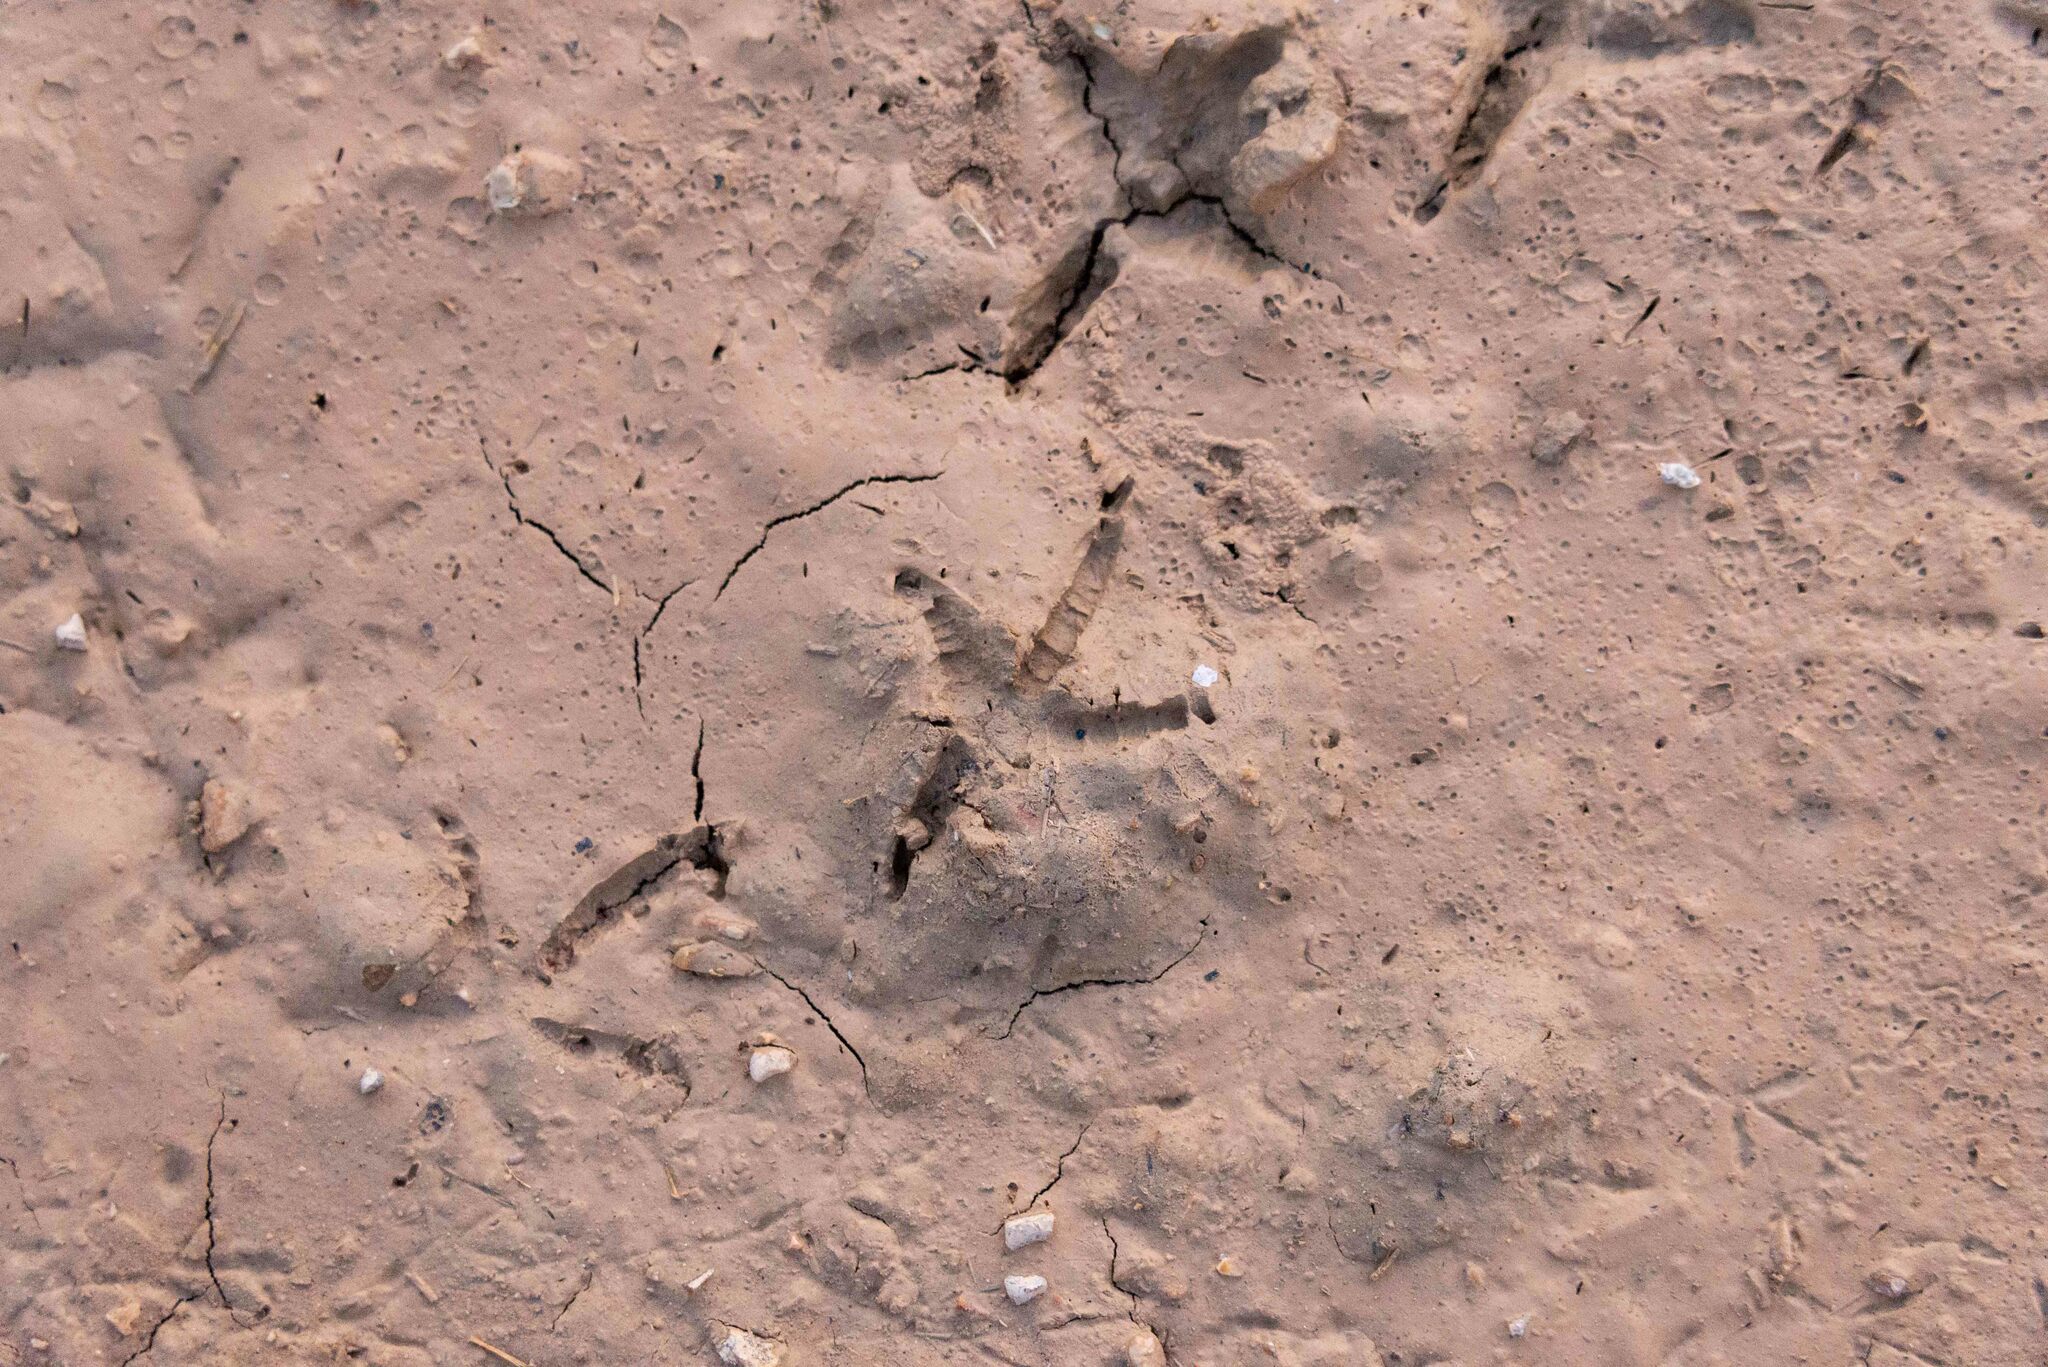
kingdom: Animalia
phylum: Chordata
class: Aves
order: Columbiformes
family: Columbidae
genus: Columba
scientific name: Columba palumbus
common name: Common wood pigeon
